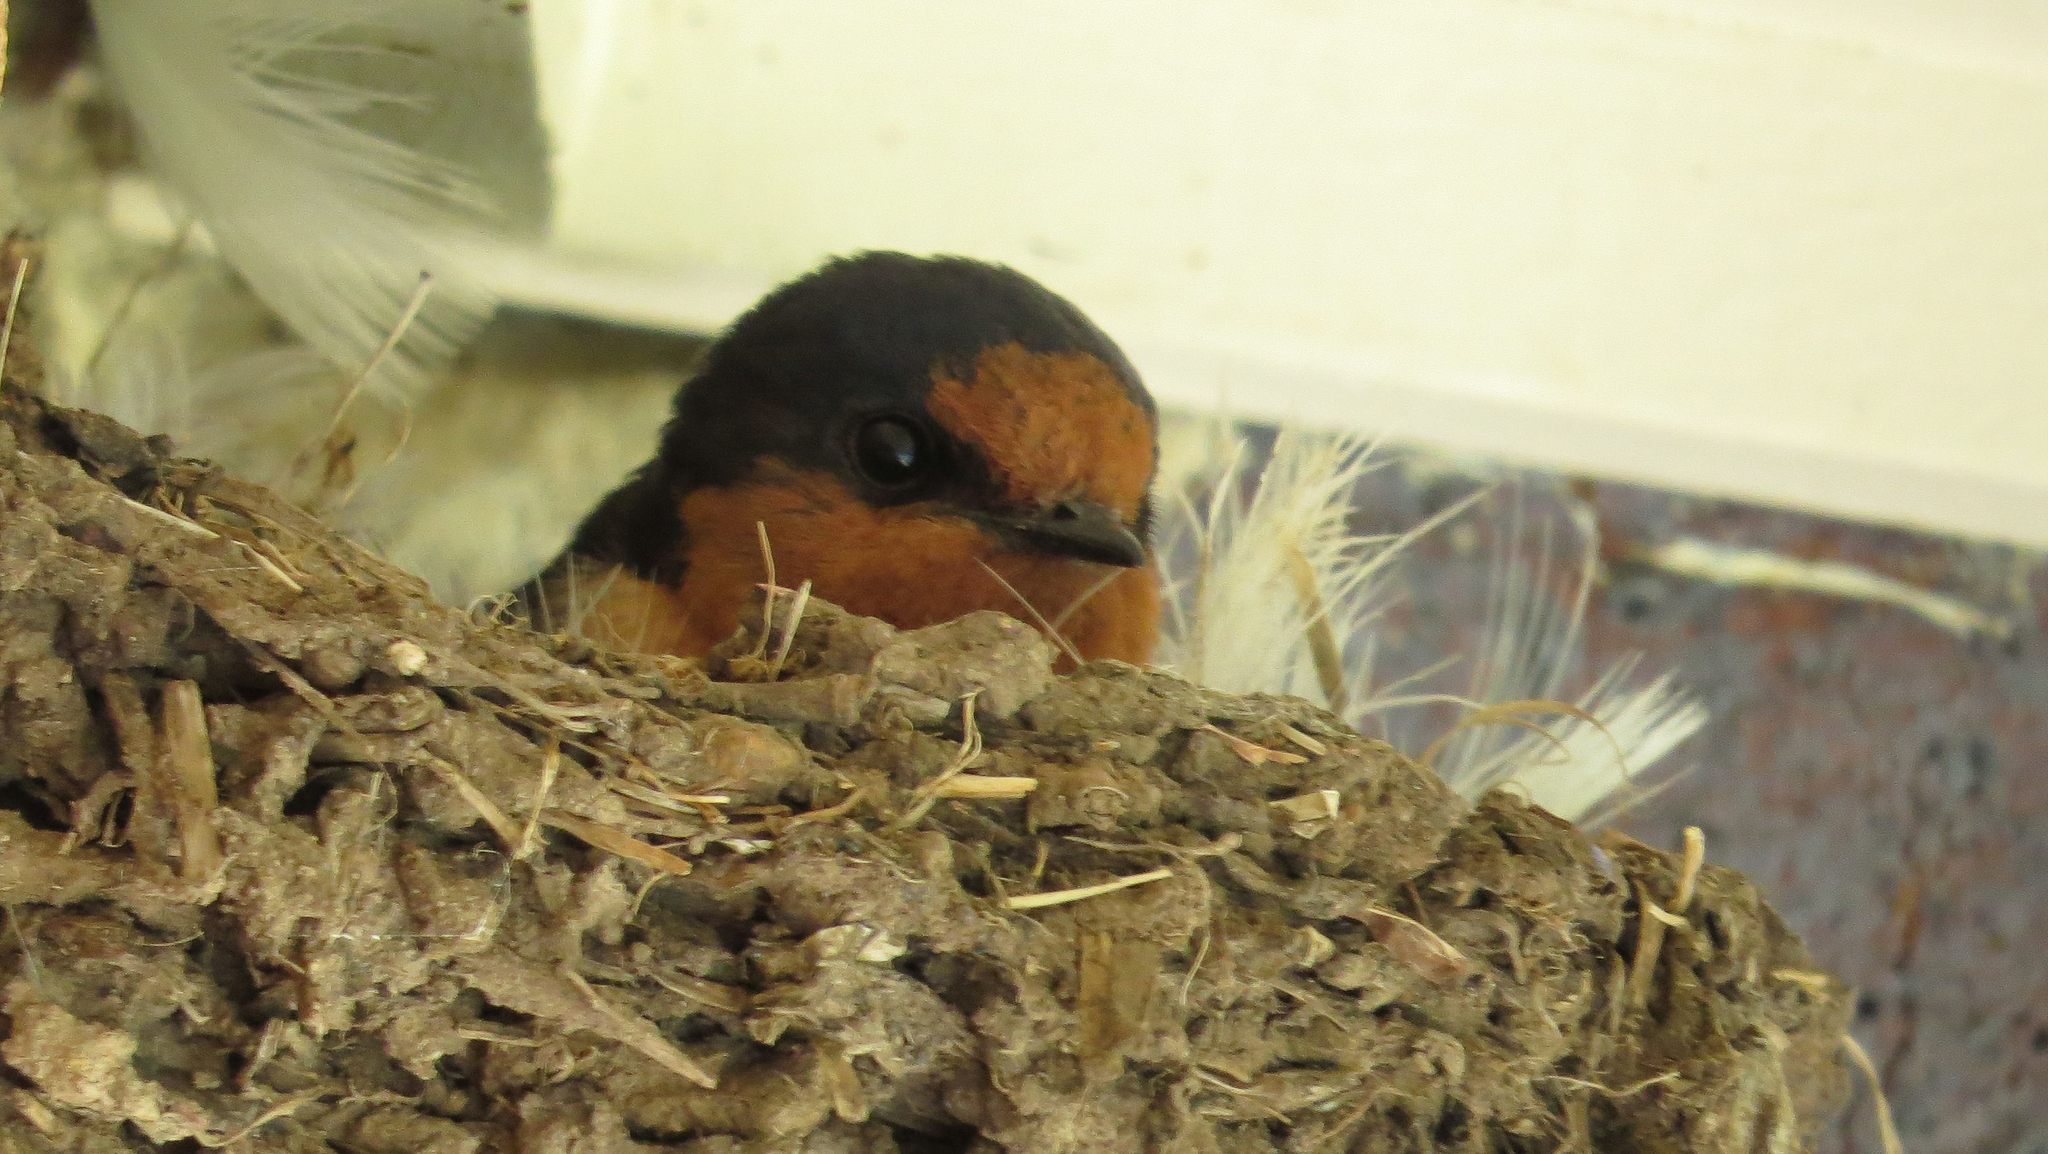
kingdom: Animalia
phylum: Chordata
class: Aves
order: Passeriformes
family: Hirundinidae
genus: Hirundo
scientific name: Hirundo neoxena
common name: Welcome swallow
